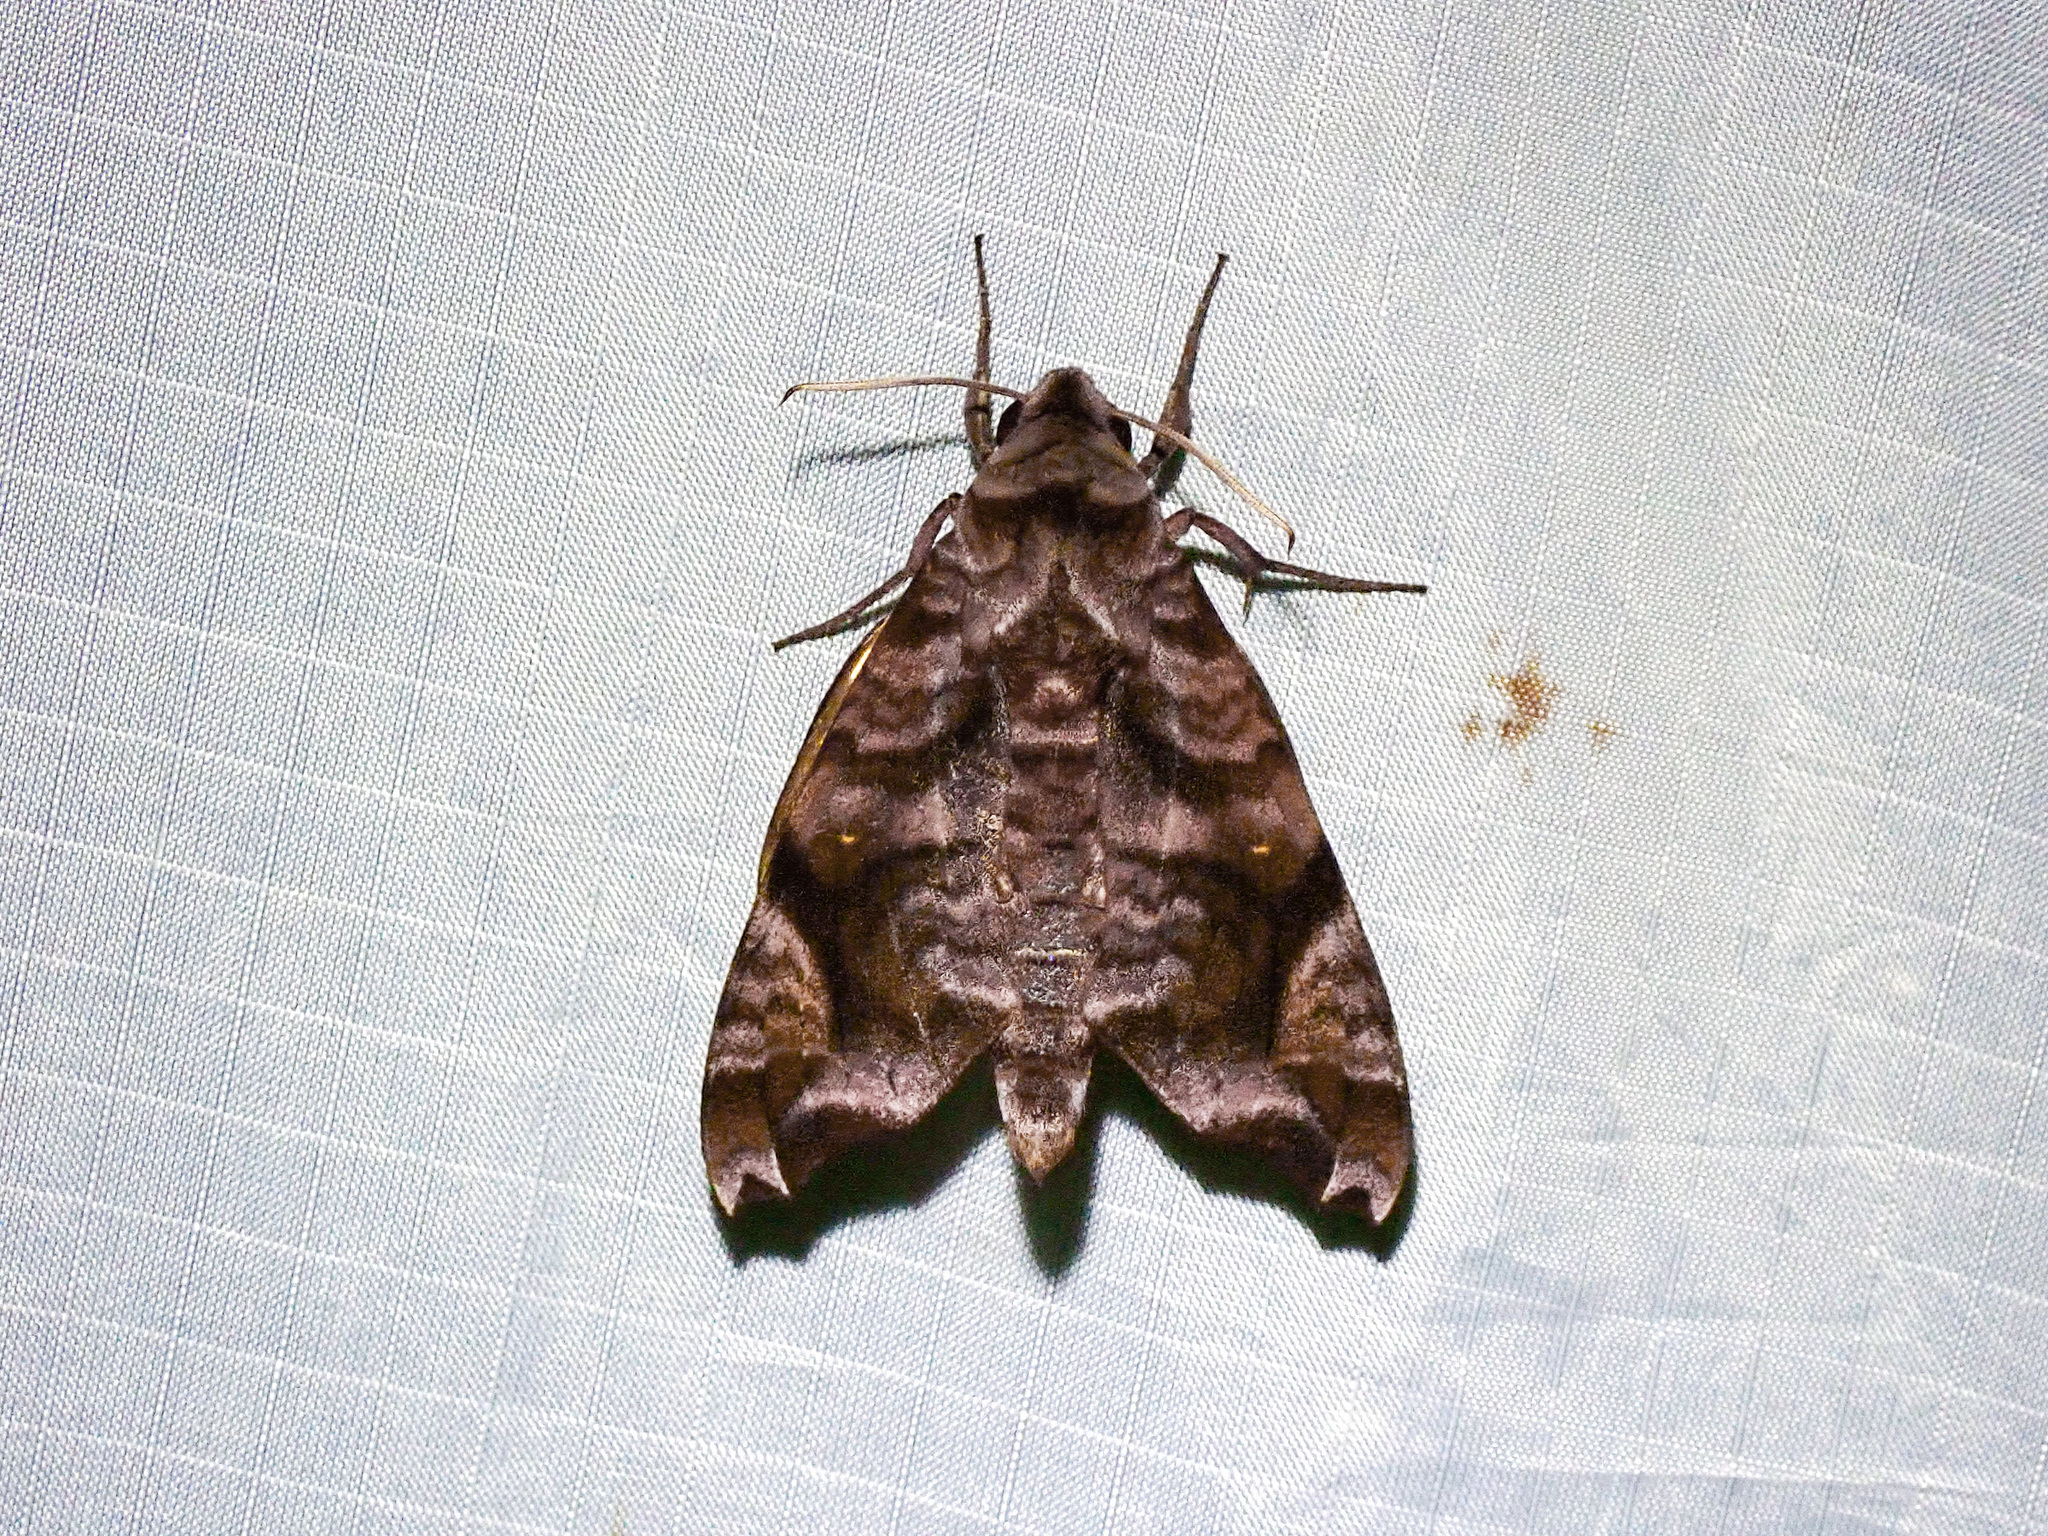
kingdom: Animalia
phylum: Arthropoda
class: Insecta
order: Lepidoptera
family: Sphingidae
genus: Acosmeryx
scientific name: Acosmeryx anceus
